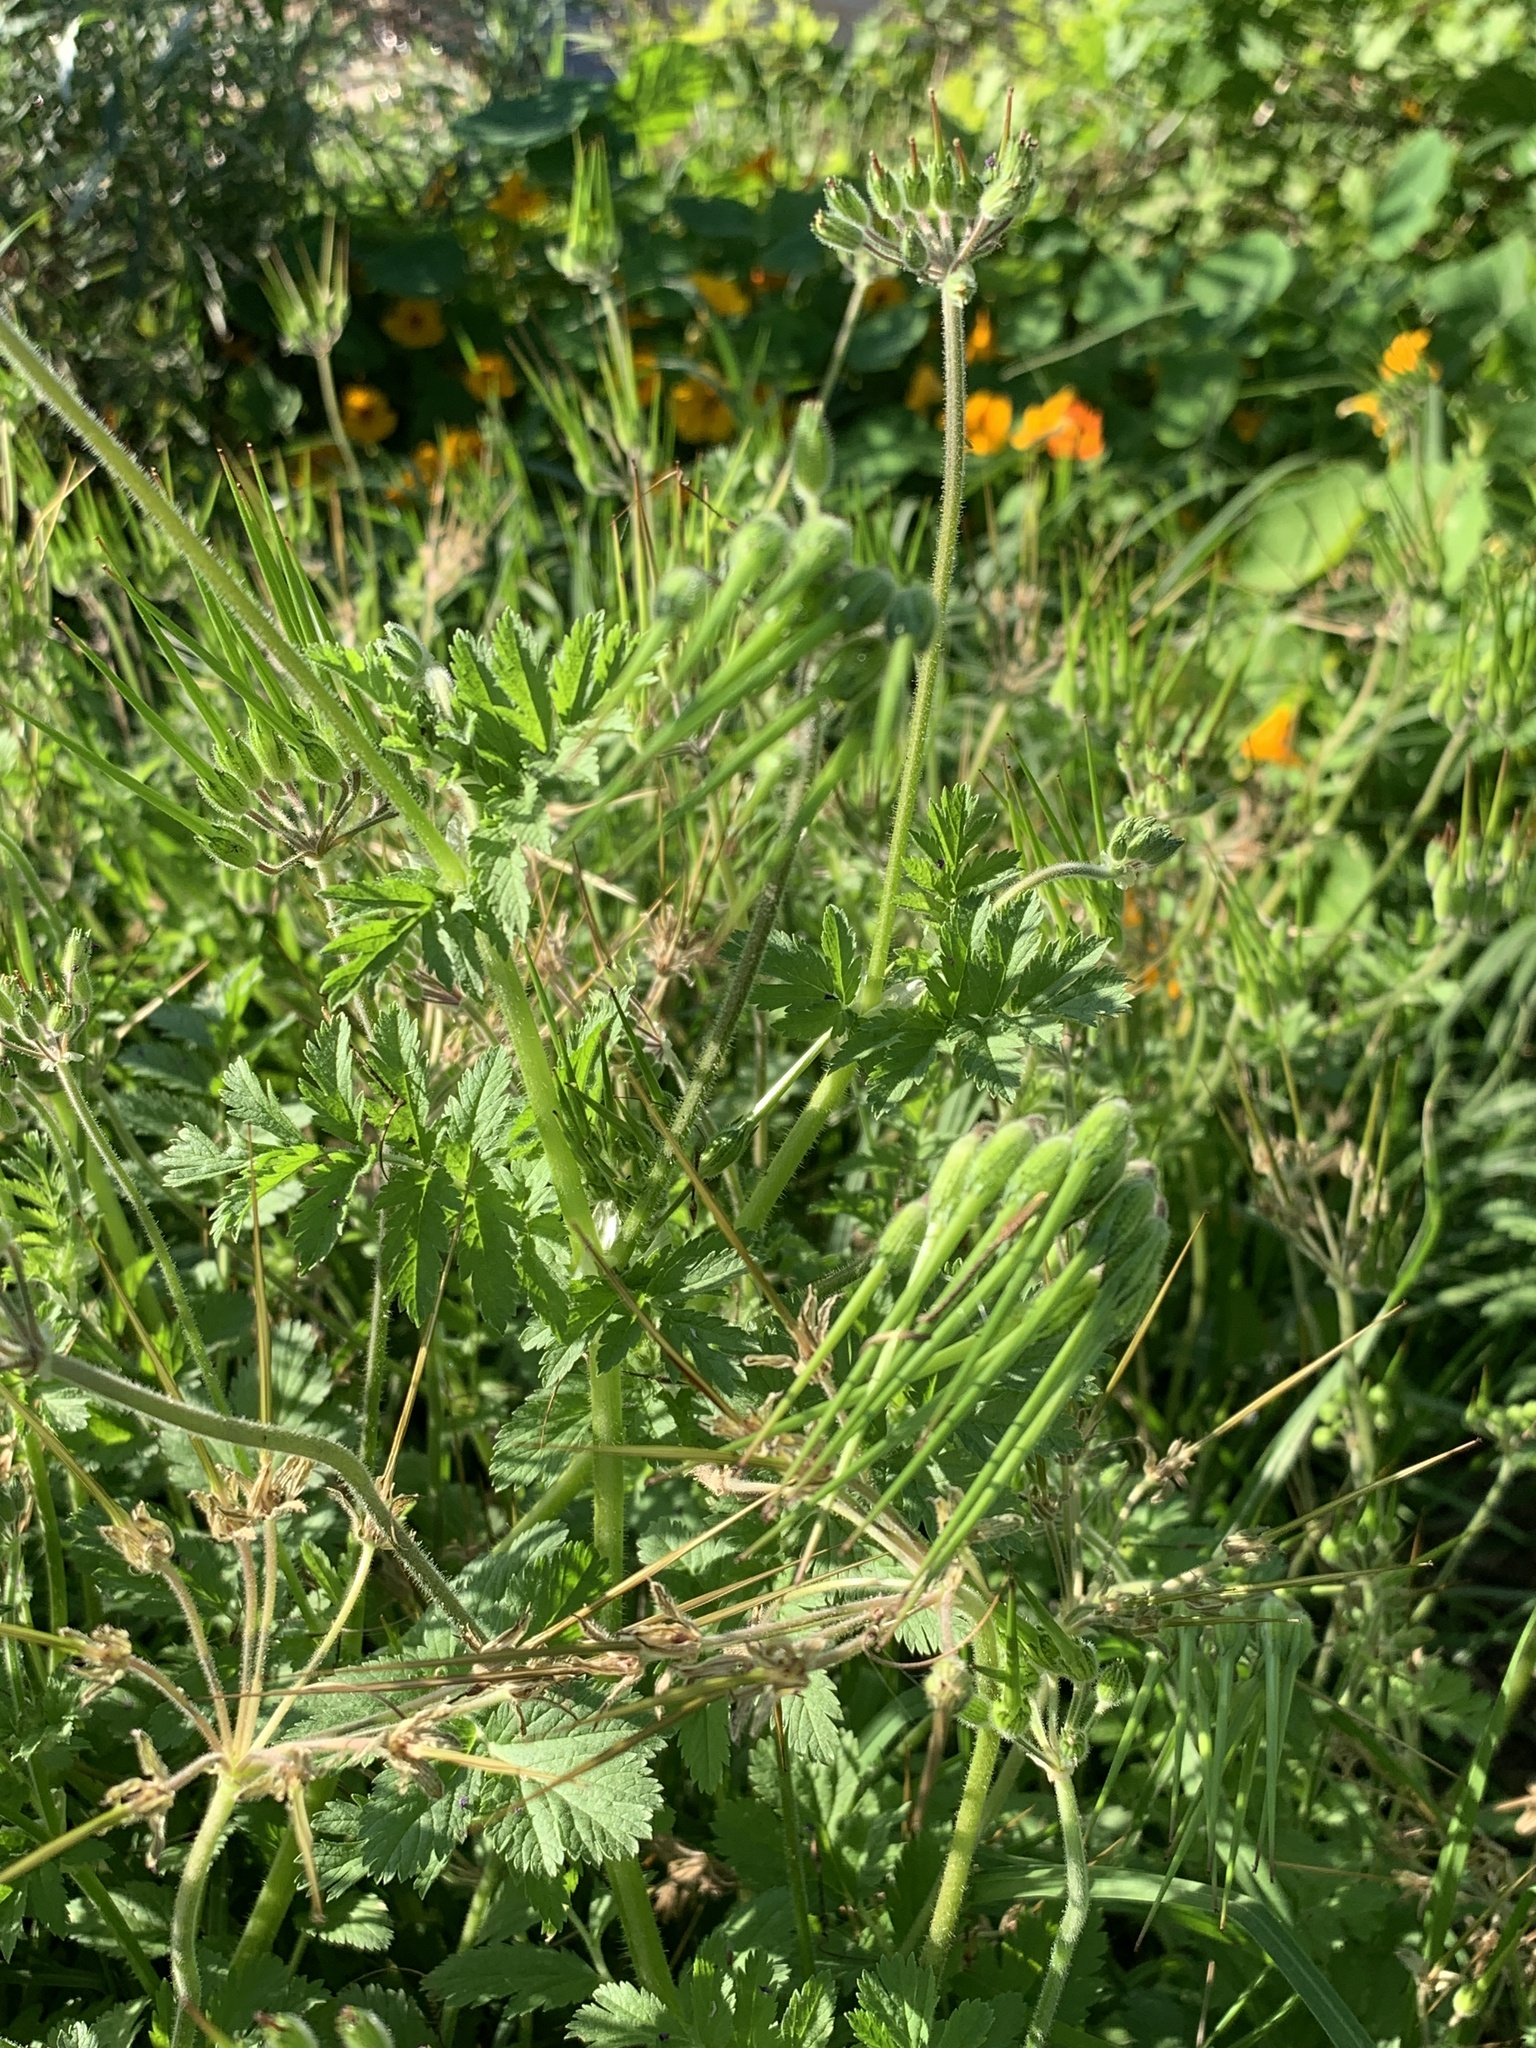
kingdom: Plantae
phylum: Tracheophyta
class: Magnoliopsida
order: Geraniales
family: Geraniaceae
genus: Erodium
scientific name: Erodium moschatum
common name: Musk stork's-bill
